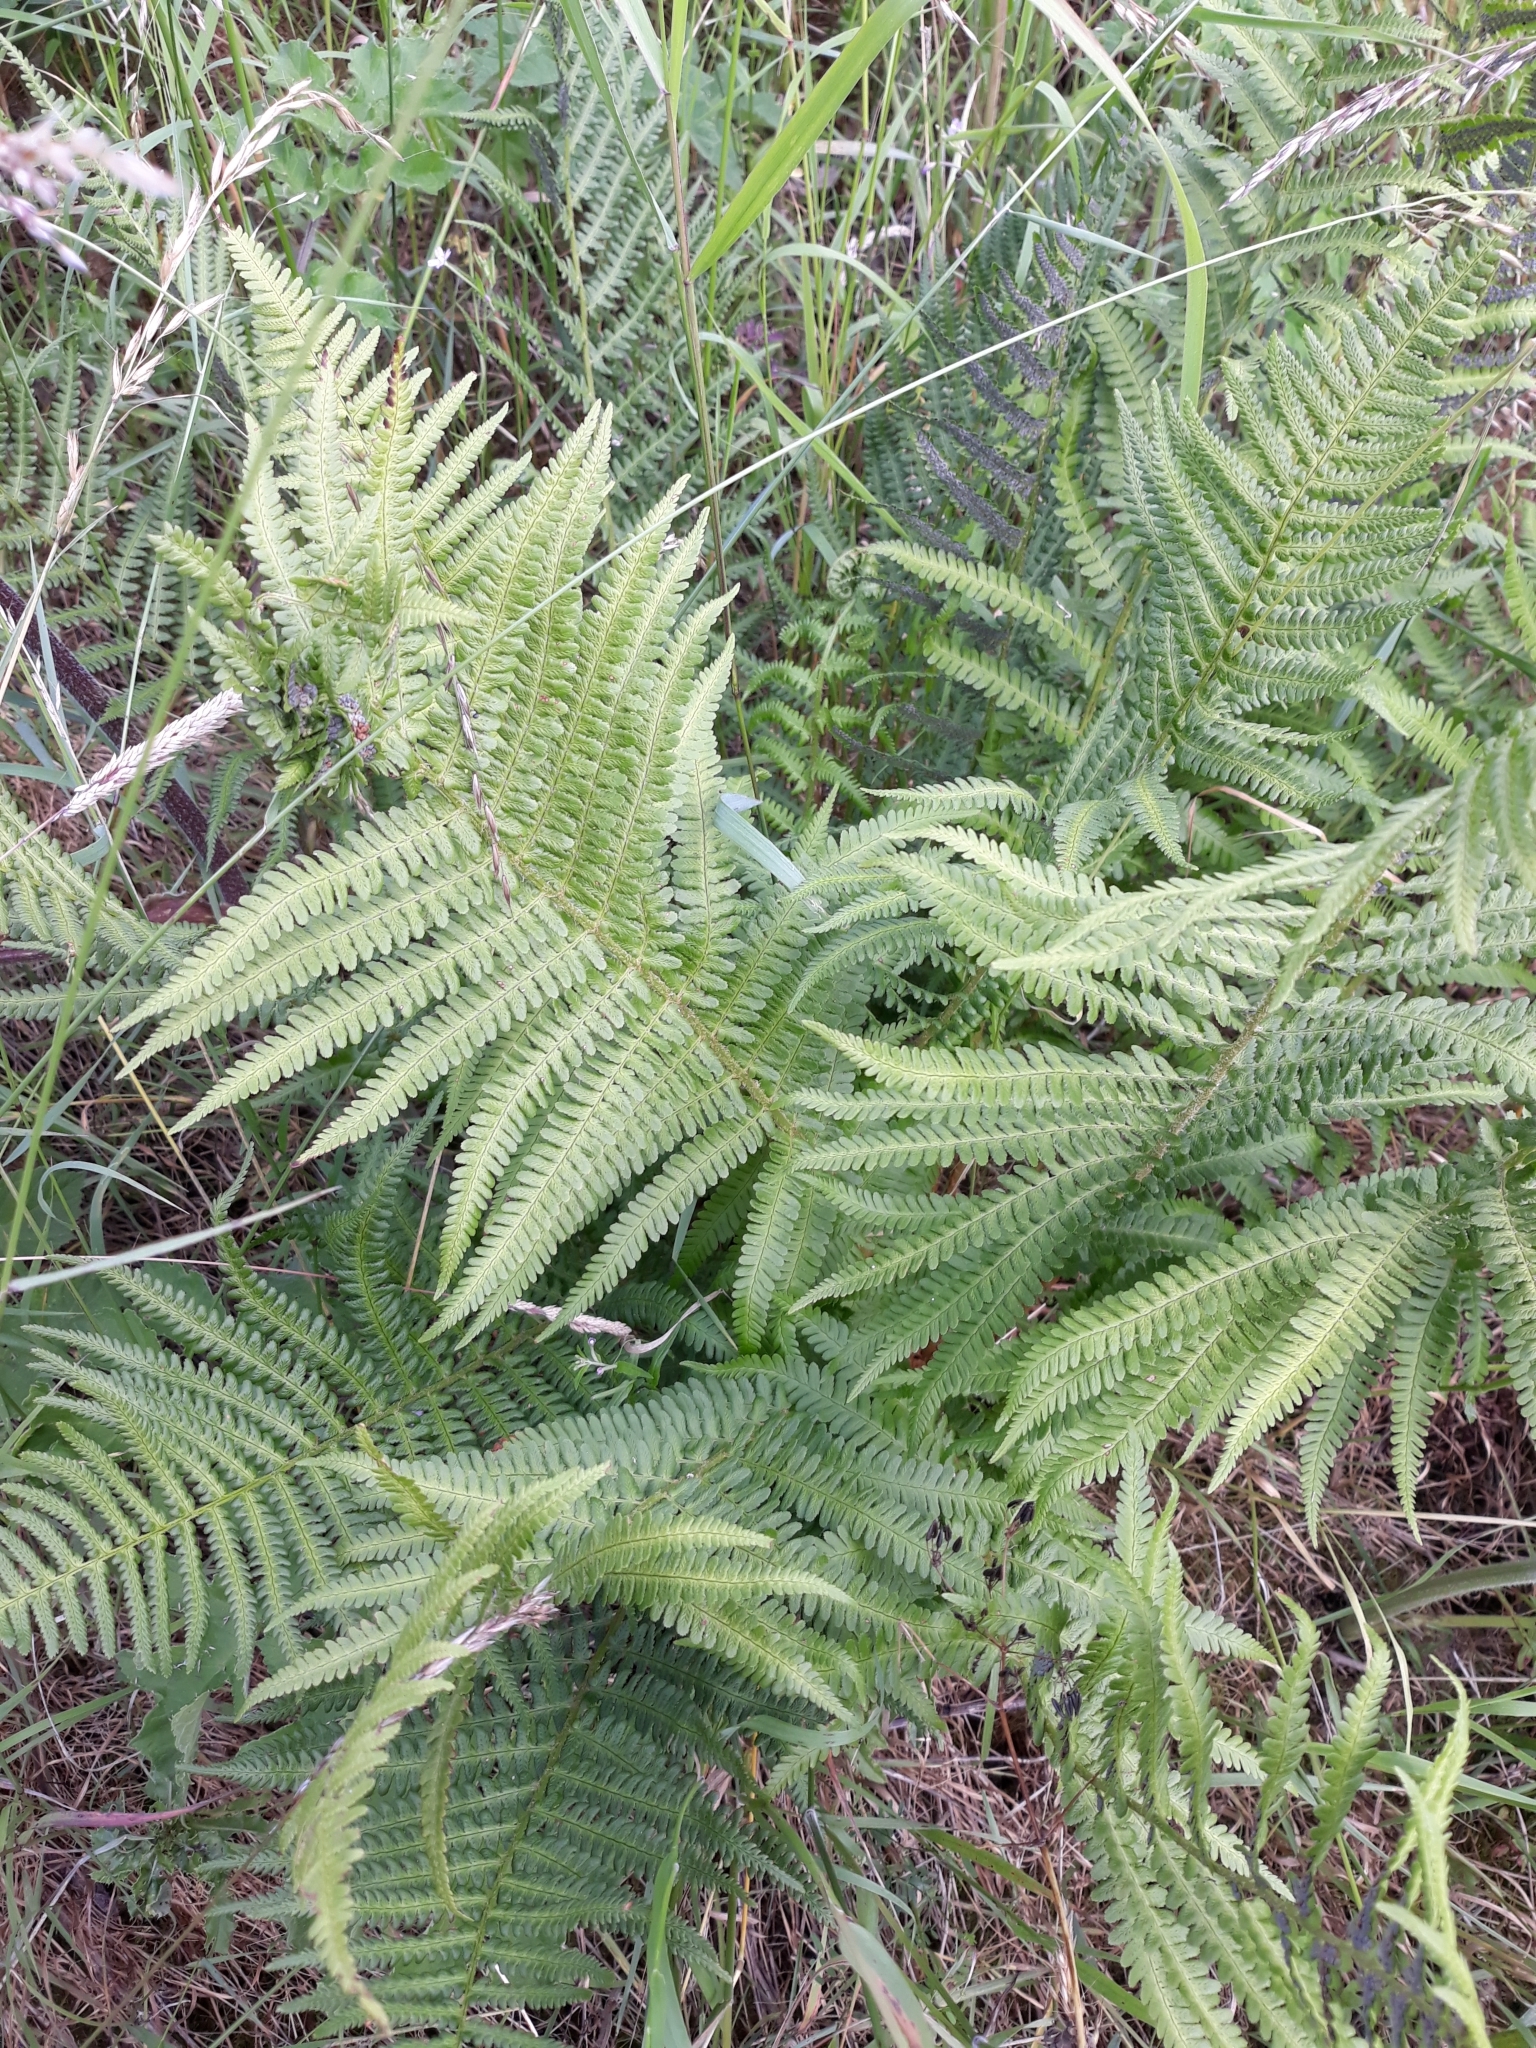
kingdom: Plantae
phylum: Tracheophyta
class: Polypodiopsida
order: Polypodiales
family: Dryopteridaceae
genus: Dryopteris
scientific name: Dryopteris filix-mas
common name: Male fern
